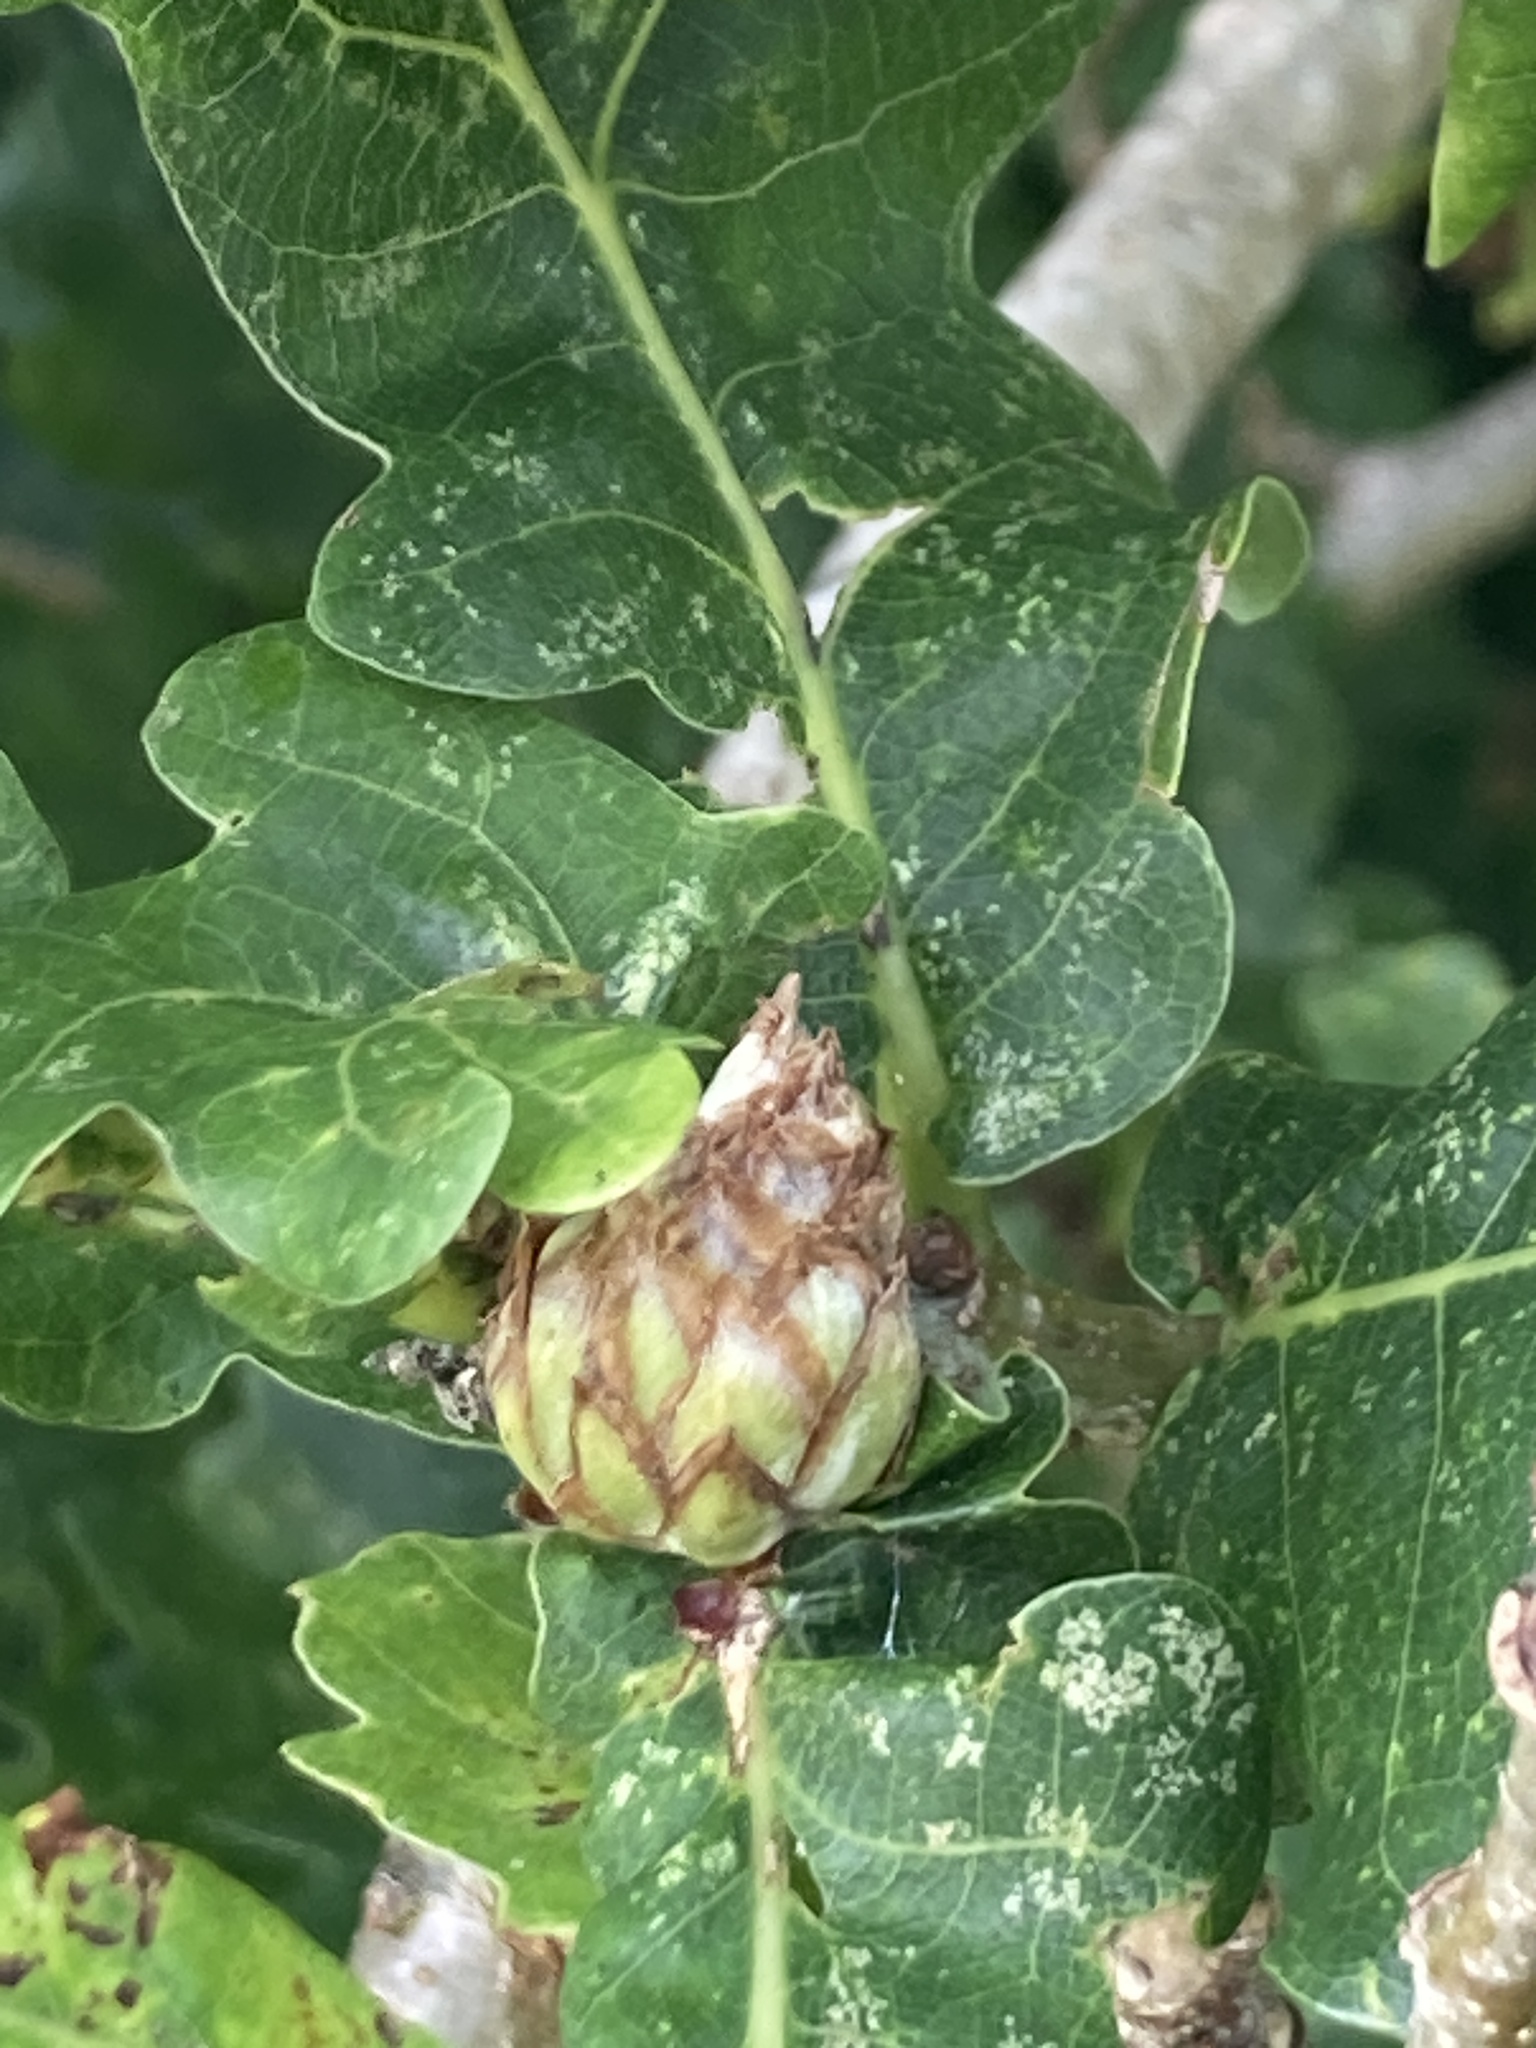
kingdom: Animalia
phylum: Arthropoda
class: Insecta
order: Hymenoptera
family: Cynipidae
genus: Andricus
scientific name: Andricus foecundatrix
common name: Artichoke gall
